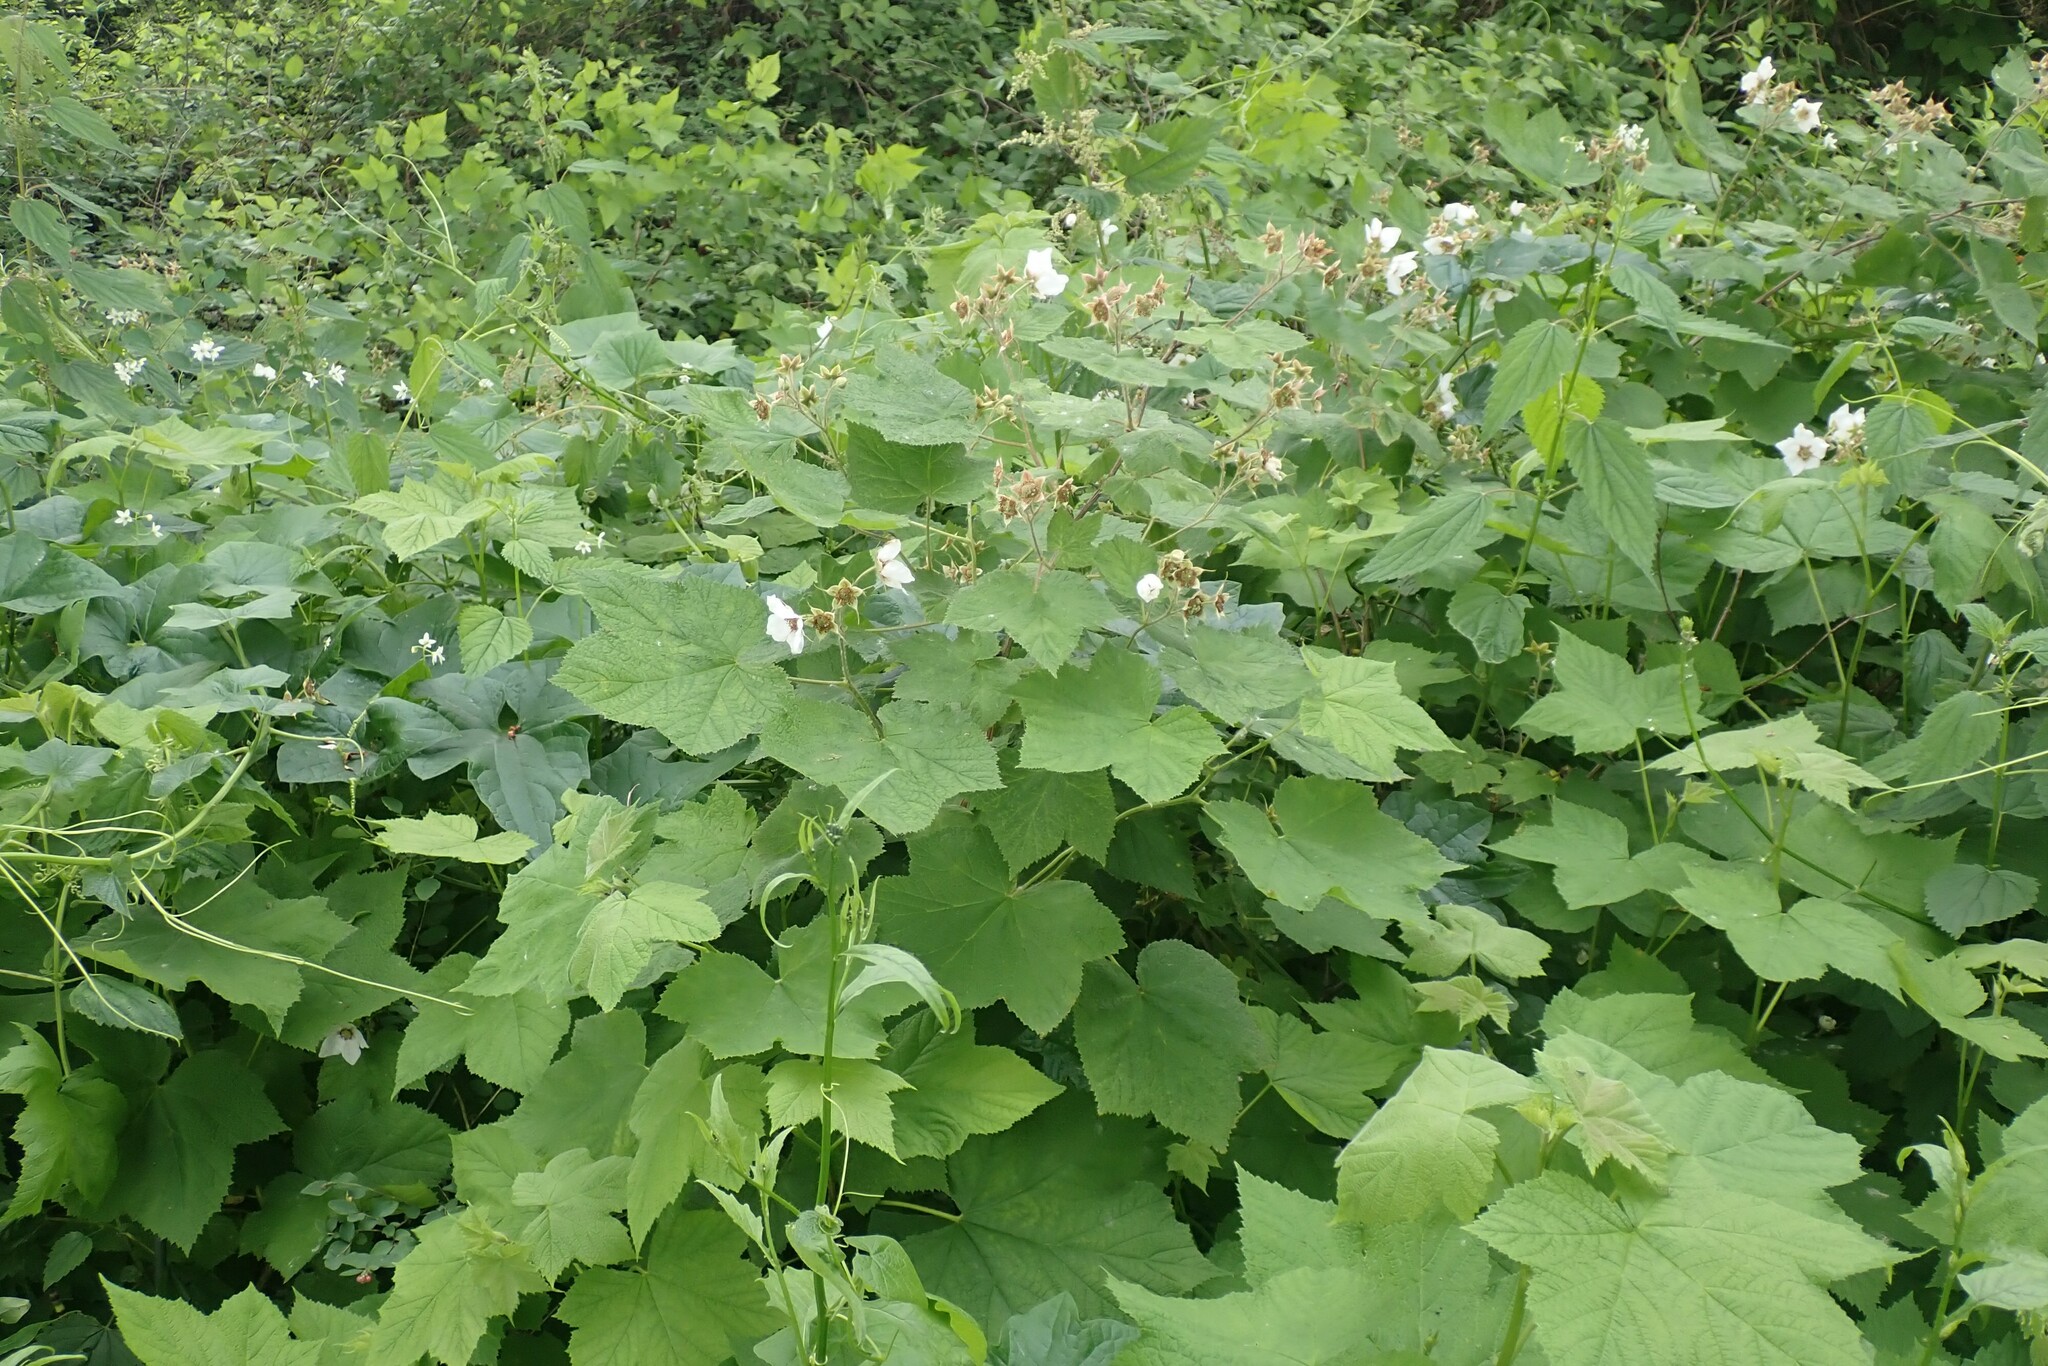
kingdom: Plantae
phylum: Tracheophyta
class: Magnoliopsida
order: Rosales
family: Rosaceae
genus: Rubus
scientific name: Rubus parviflorus
